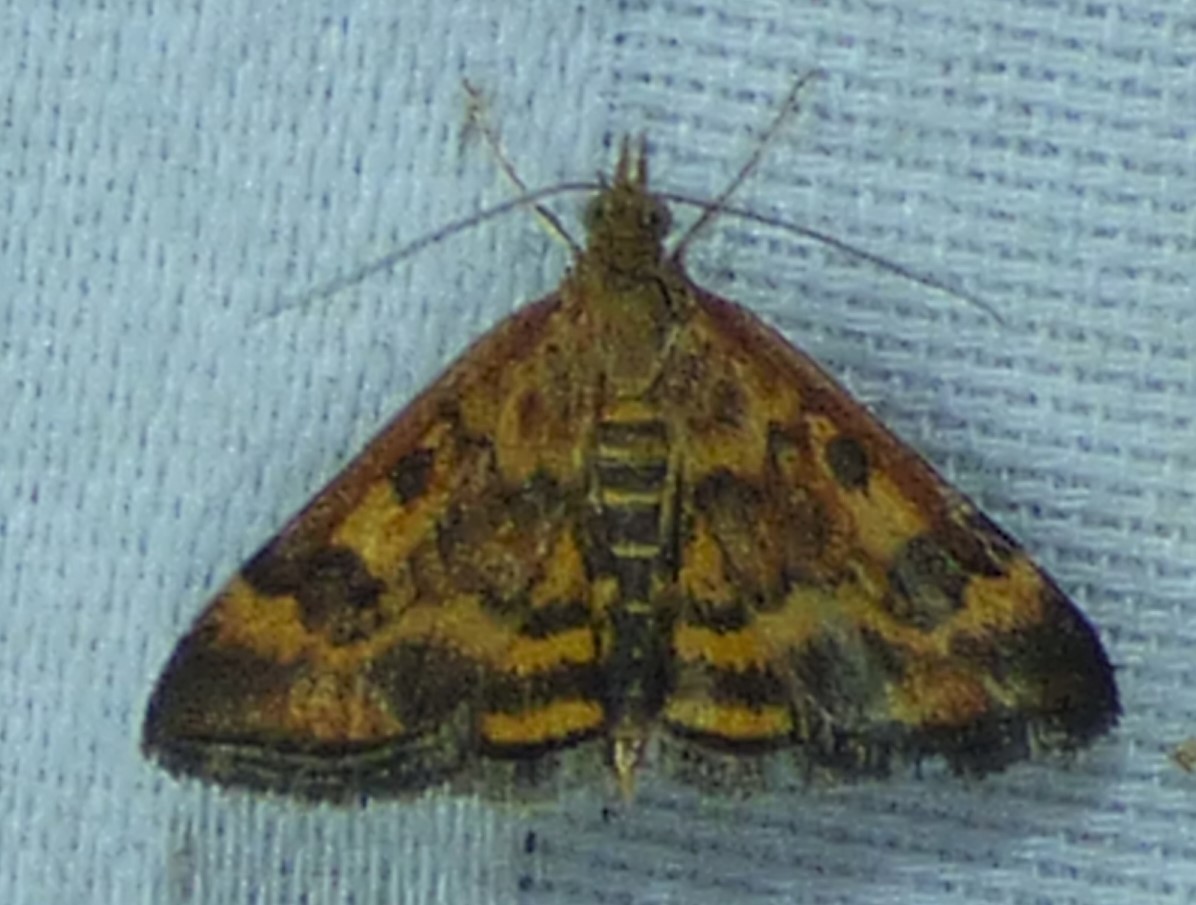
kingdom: Animalia
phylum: Arthropoda
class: Insecta
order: Lepidoptera
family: Crambidae
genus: Pyrausta
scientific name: Pyrausta subsequalis
